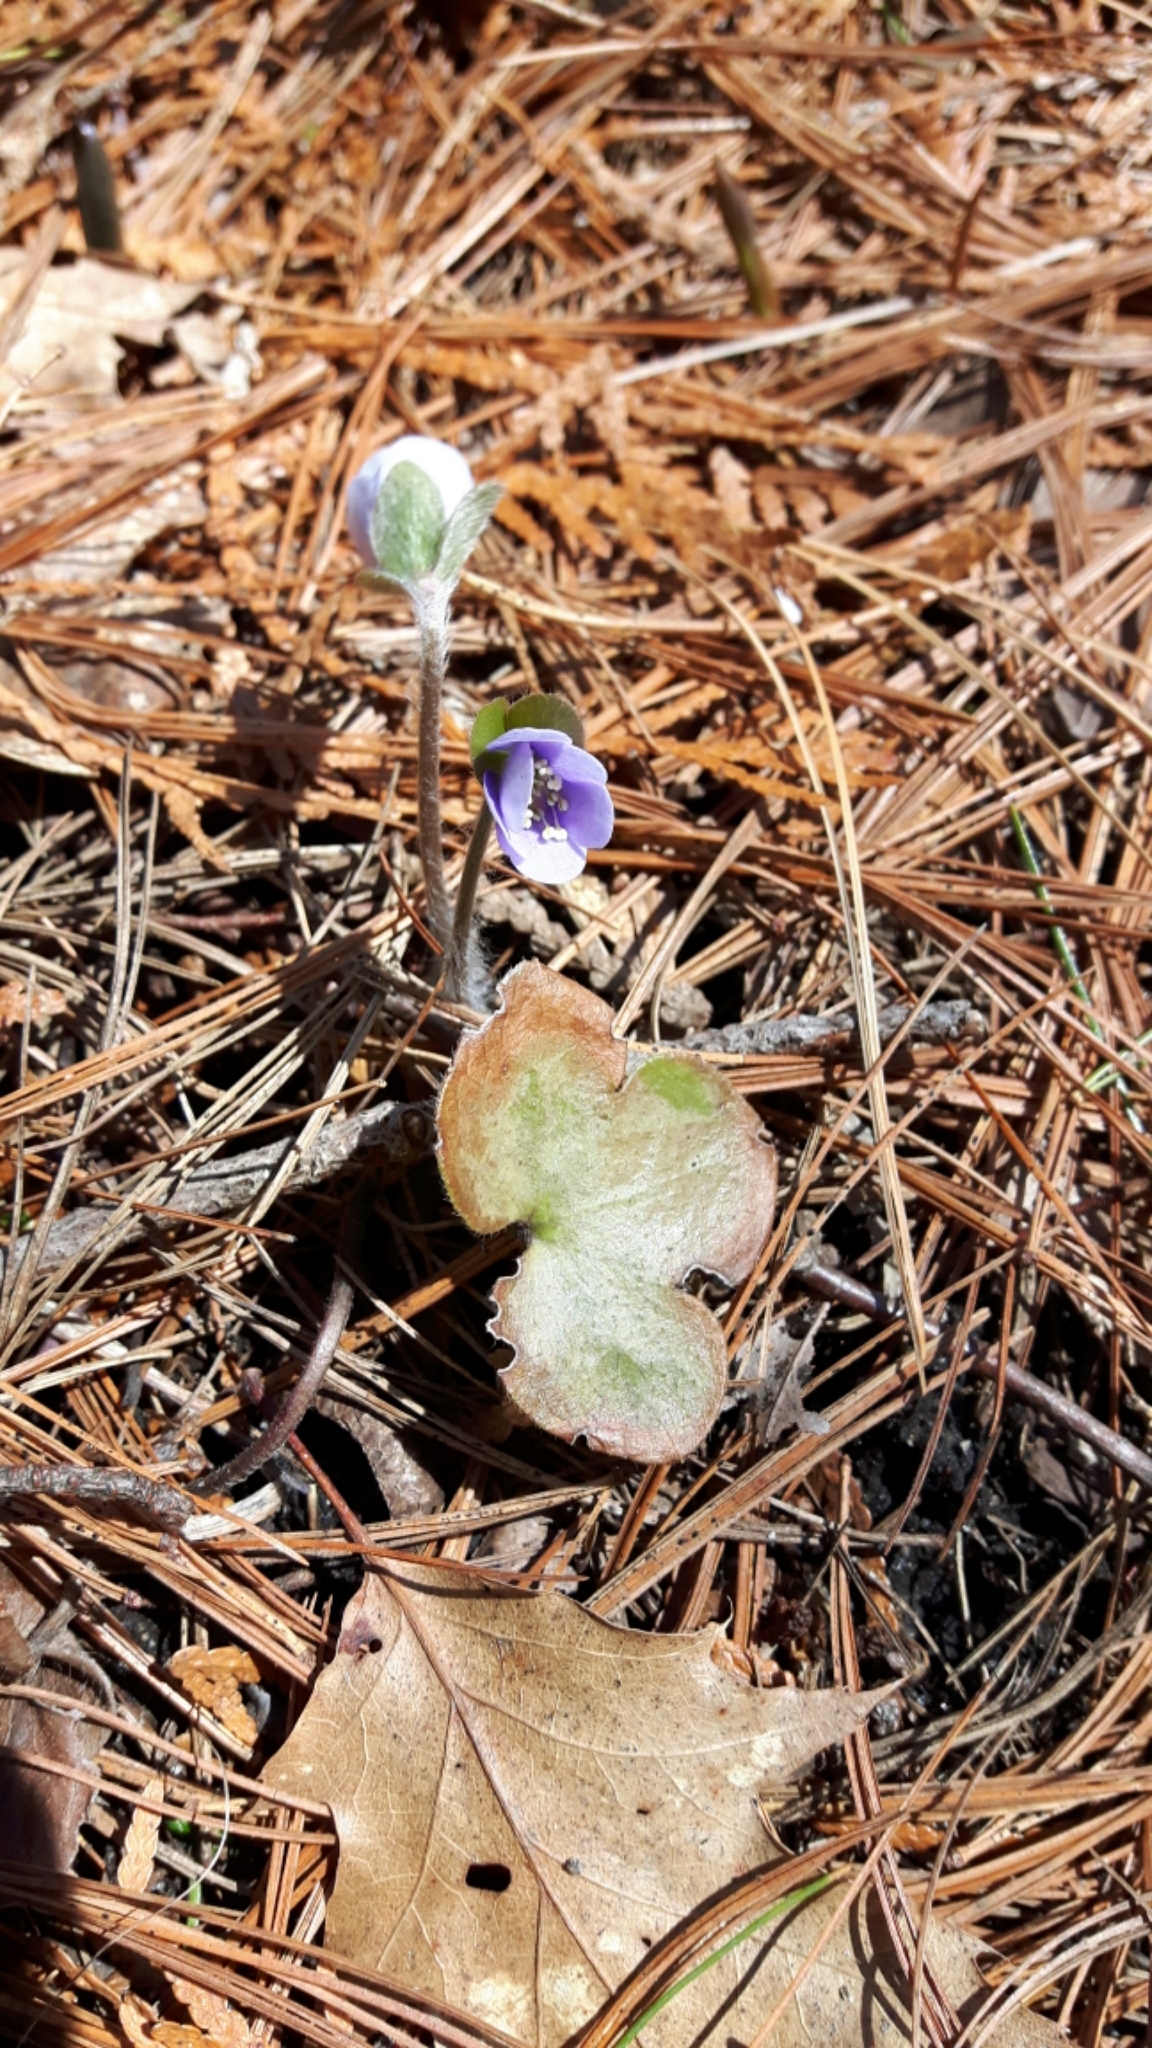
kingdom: Plantae
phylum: Tracheophyta
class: Magnoliopsida
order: Ranunculales
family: Ranunculaceae
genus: Hepatica
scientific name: Hepatica americana
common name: American hepatica
